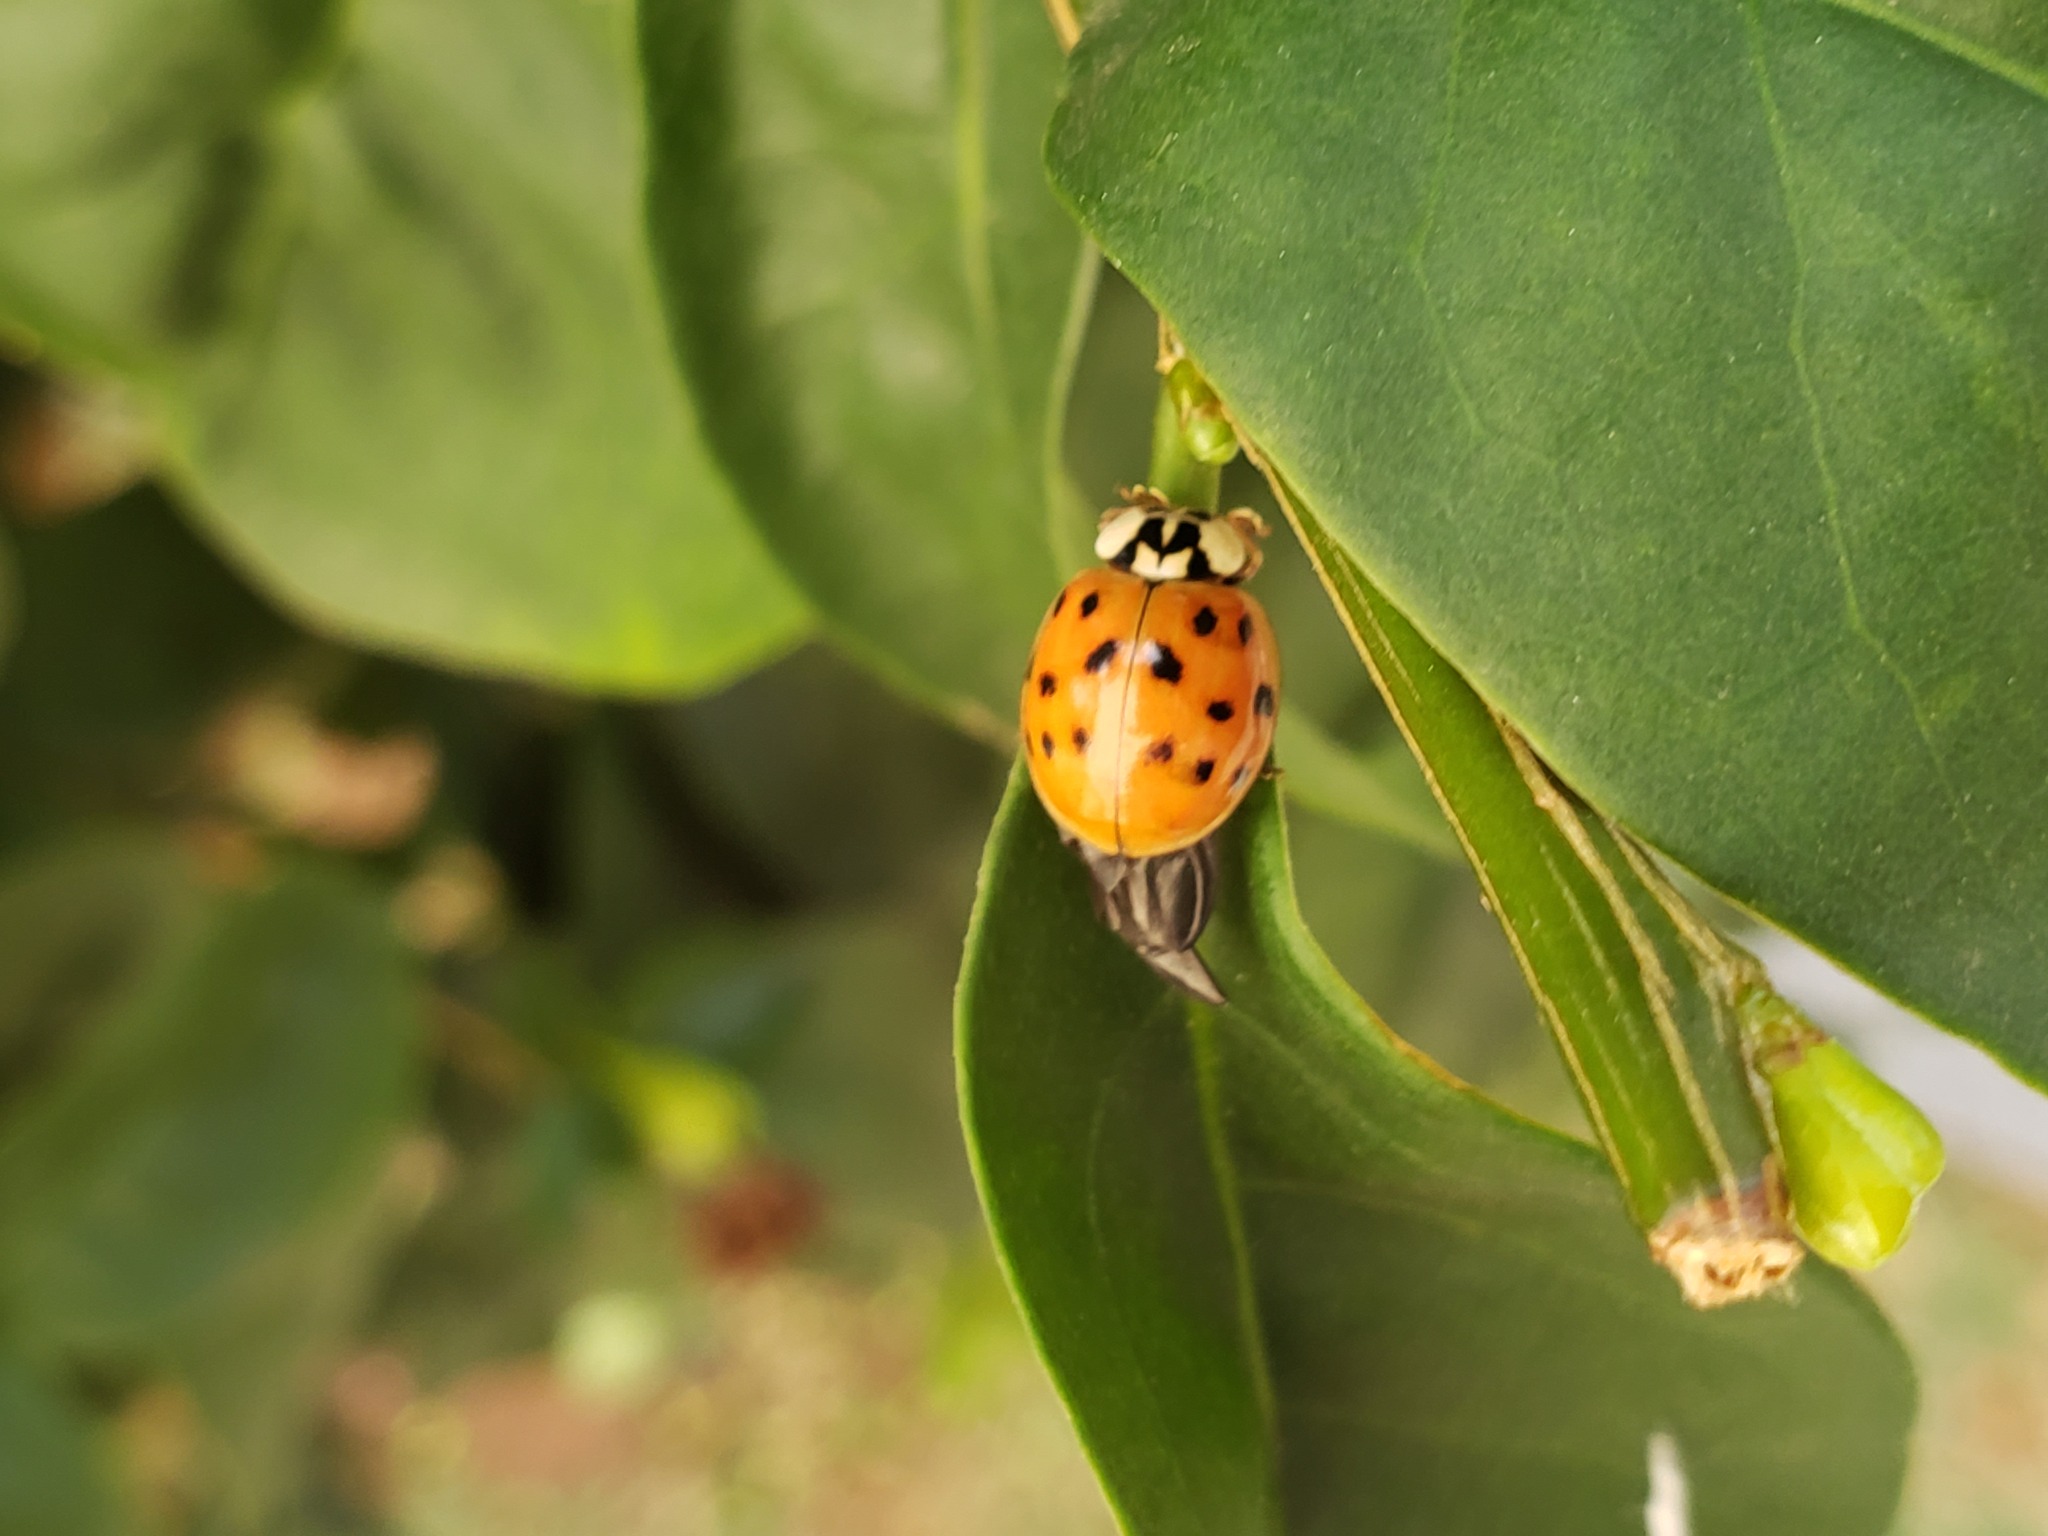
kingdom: Animalia
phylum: Arthropoda
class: Insecta
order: Coleoptera
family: Coccinellidae
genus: Harmonia
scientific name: Harmonia axyridis
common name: Harlequin ladybird
